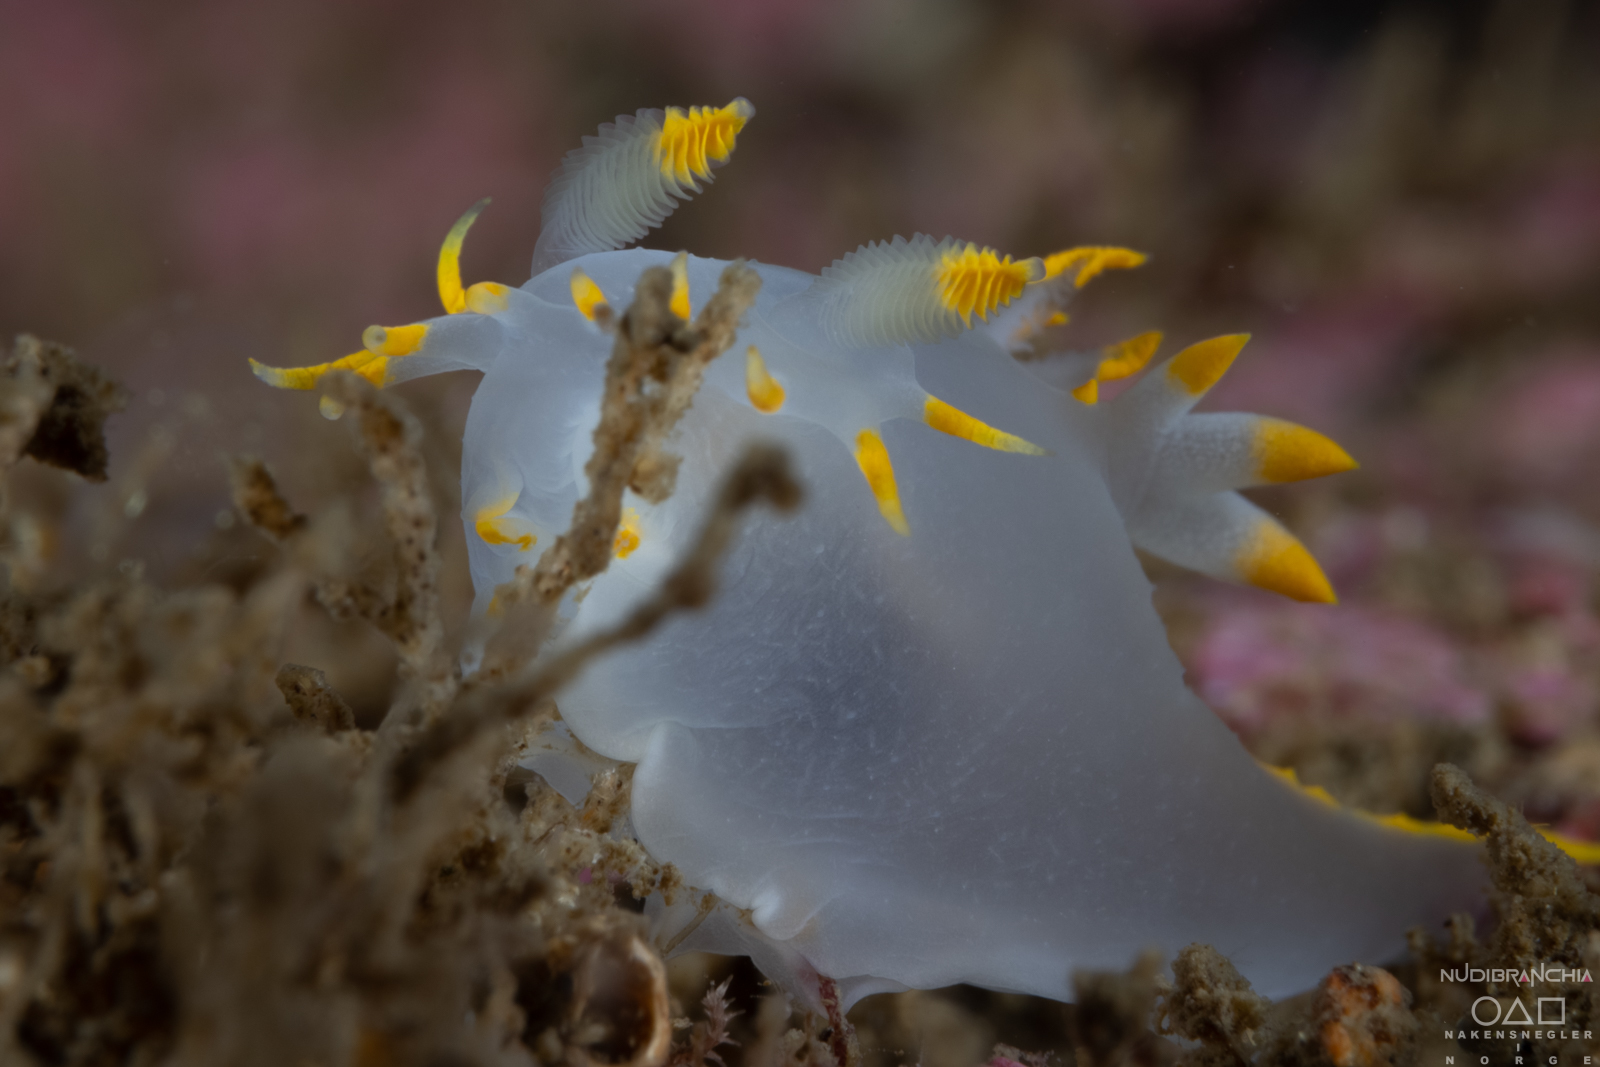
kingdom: Animalia
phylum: Mollusca
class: Gastropoda
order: Nudibranchia
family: Polyceridae
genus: Polycera
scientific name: Polycera faeroensis
